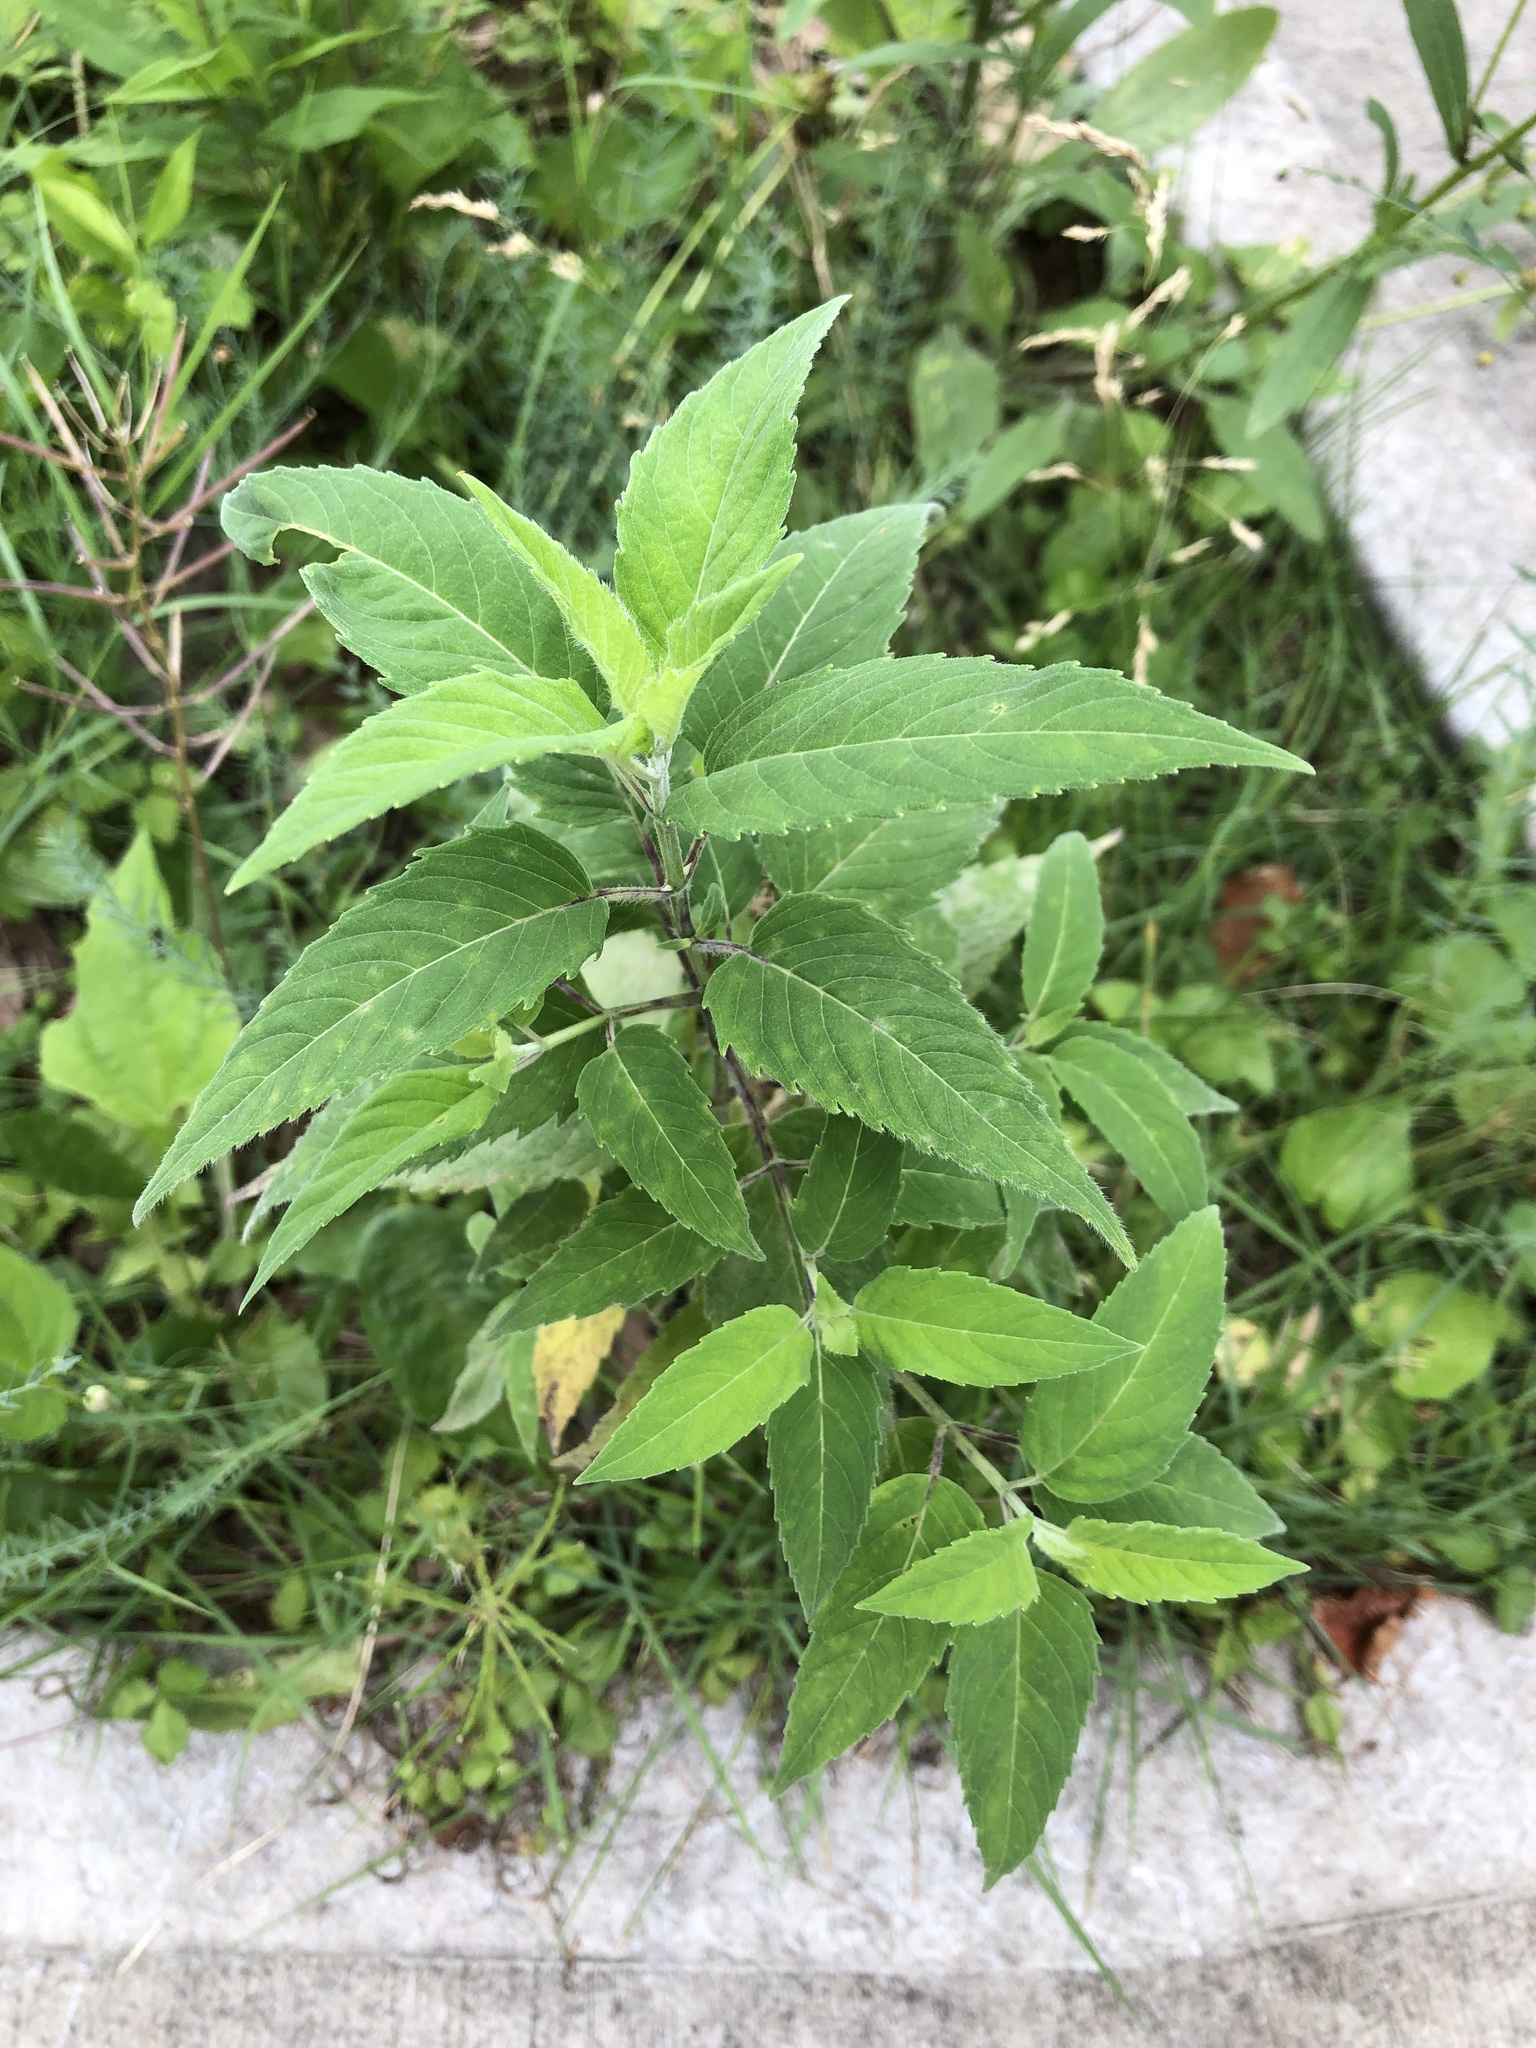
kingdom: Plantae
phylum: Tracheophyta
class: Magnoliopsida
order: Lamiales
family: Lamiaceae
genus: Monarda
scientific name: Monarda fistulosa
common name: Purple beebalm
